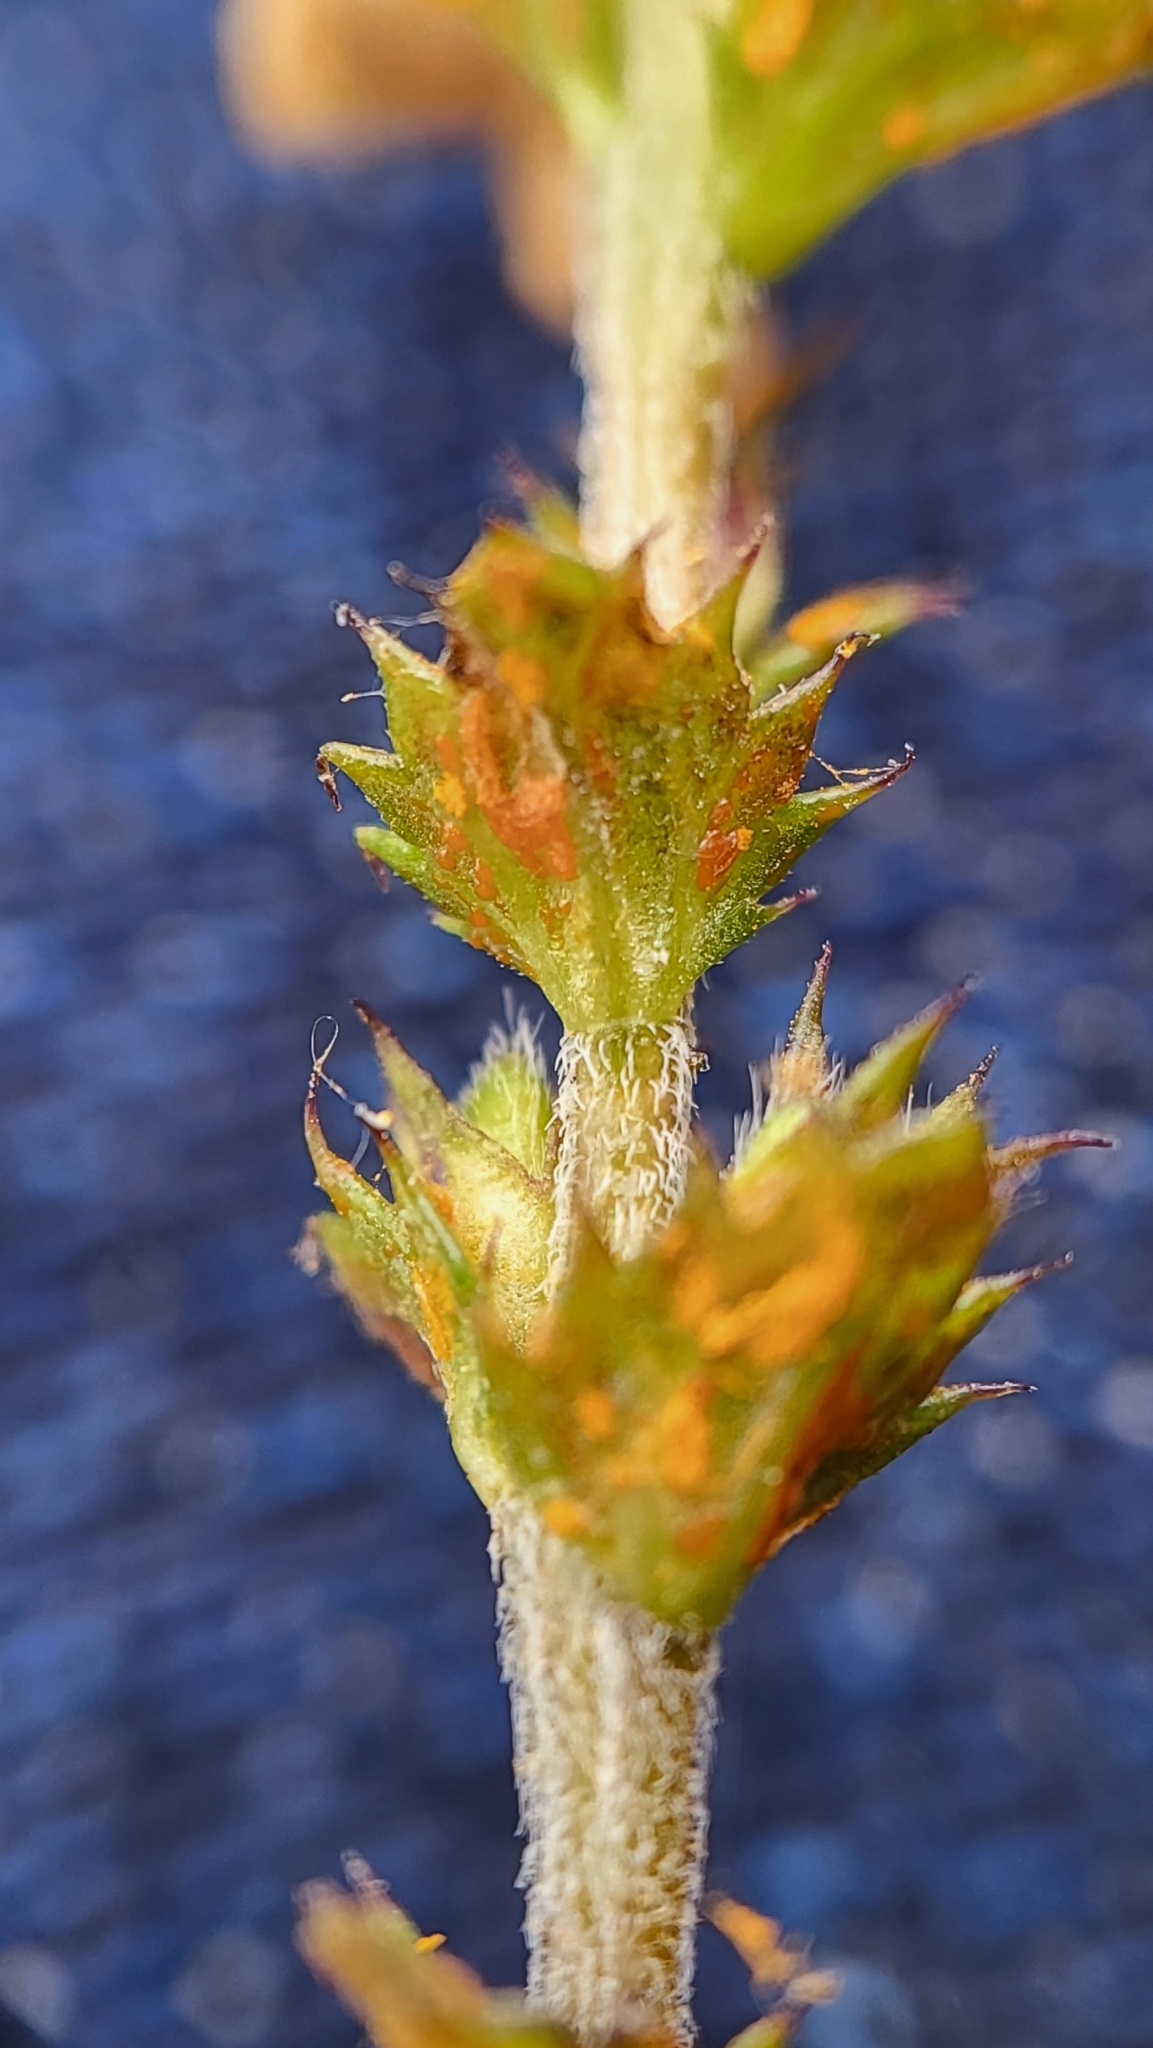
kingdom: Fungi
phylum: Basidiomycota
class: Pucciniomycetes
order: Pucciniales
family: Coleosporiaceae
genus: Coleosporium
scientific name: Coleosporium euphrasiae
